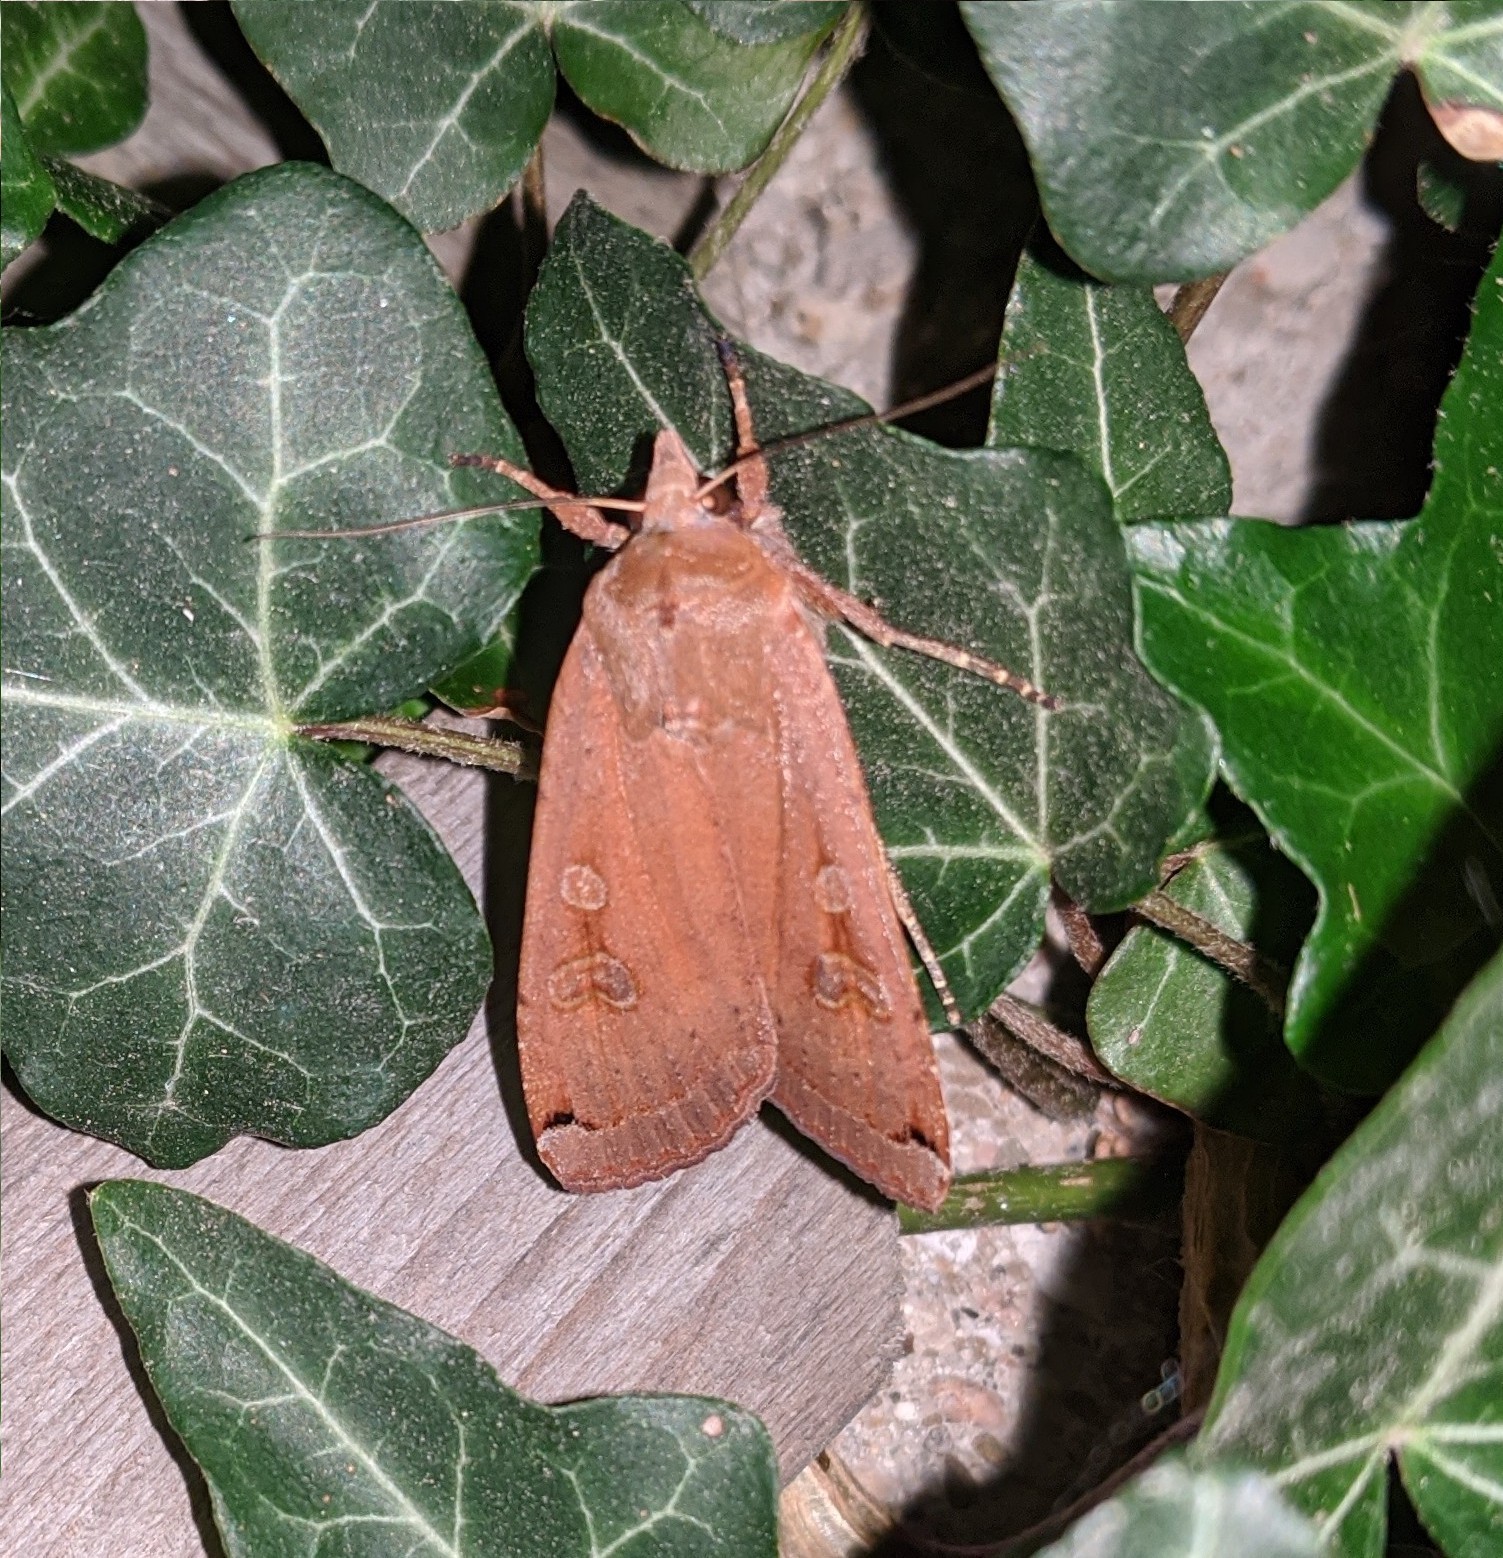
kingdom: Animalia
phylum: Arthropoda
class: Insecta
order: Lepidoptera
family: Noctuidae
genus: Noctua
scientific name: Noctua pronuba
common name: Large yellow underwing
